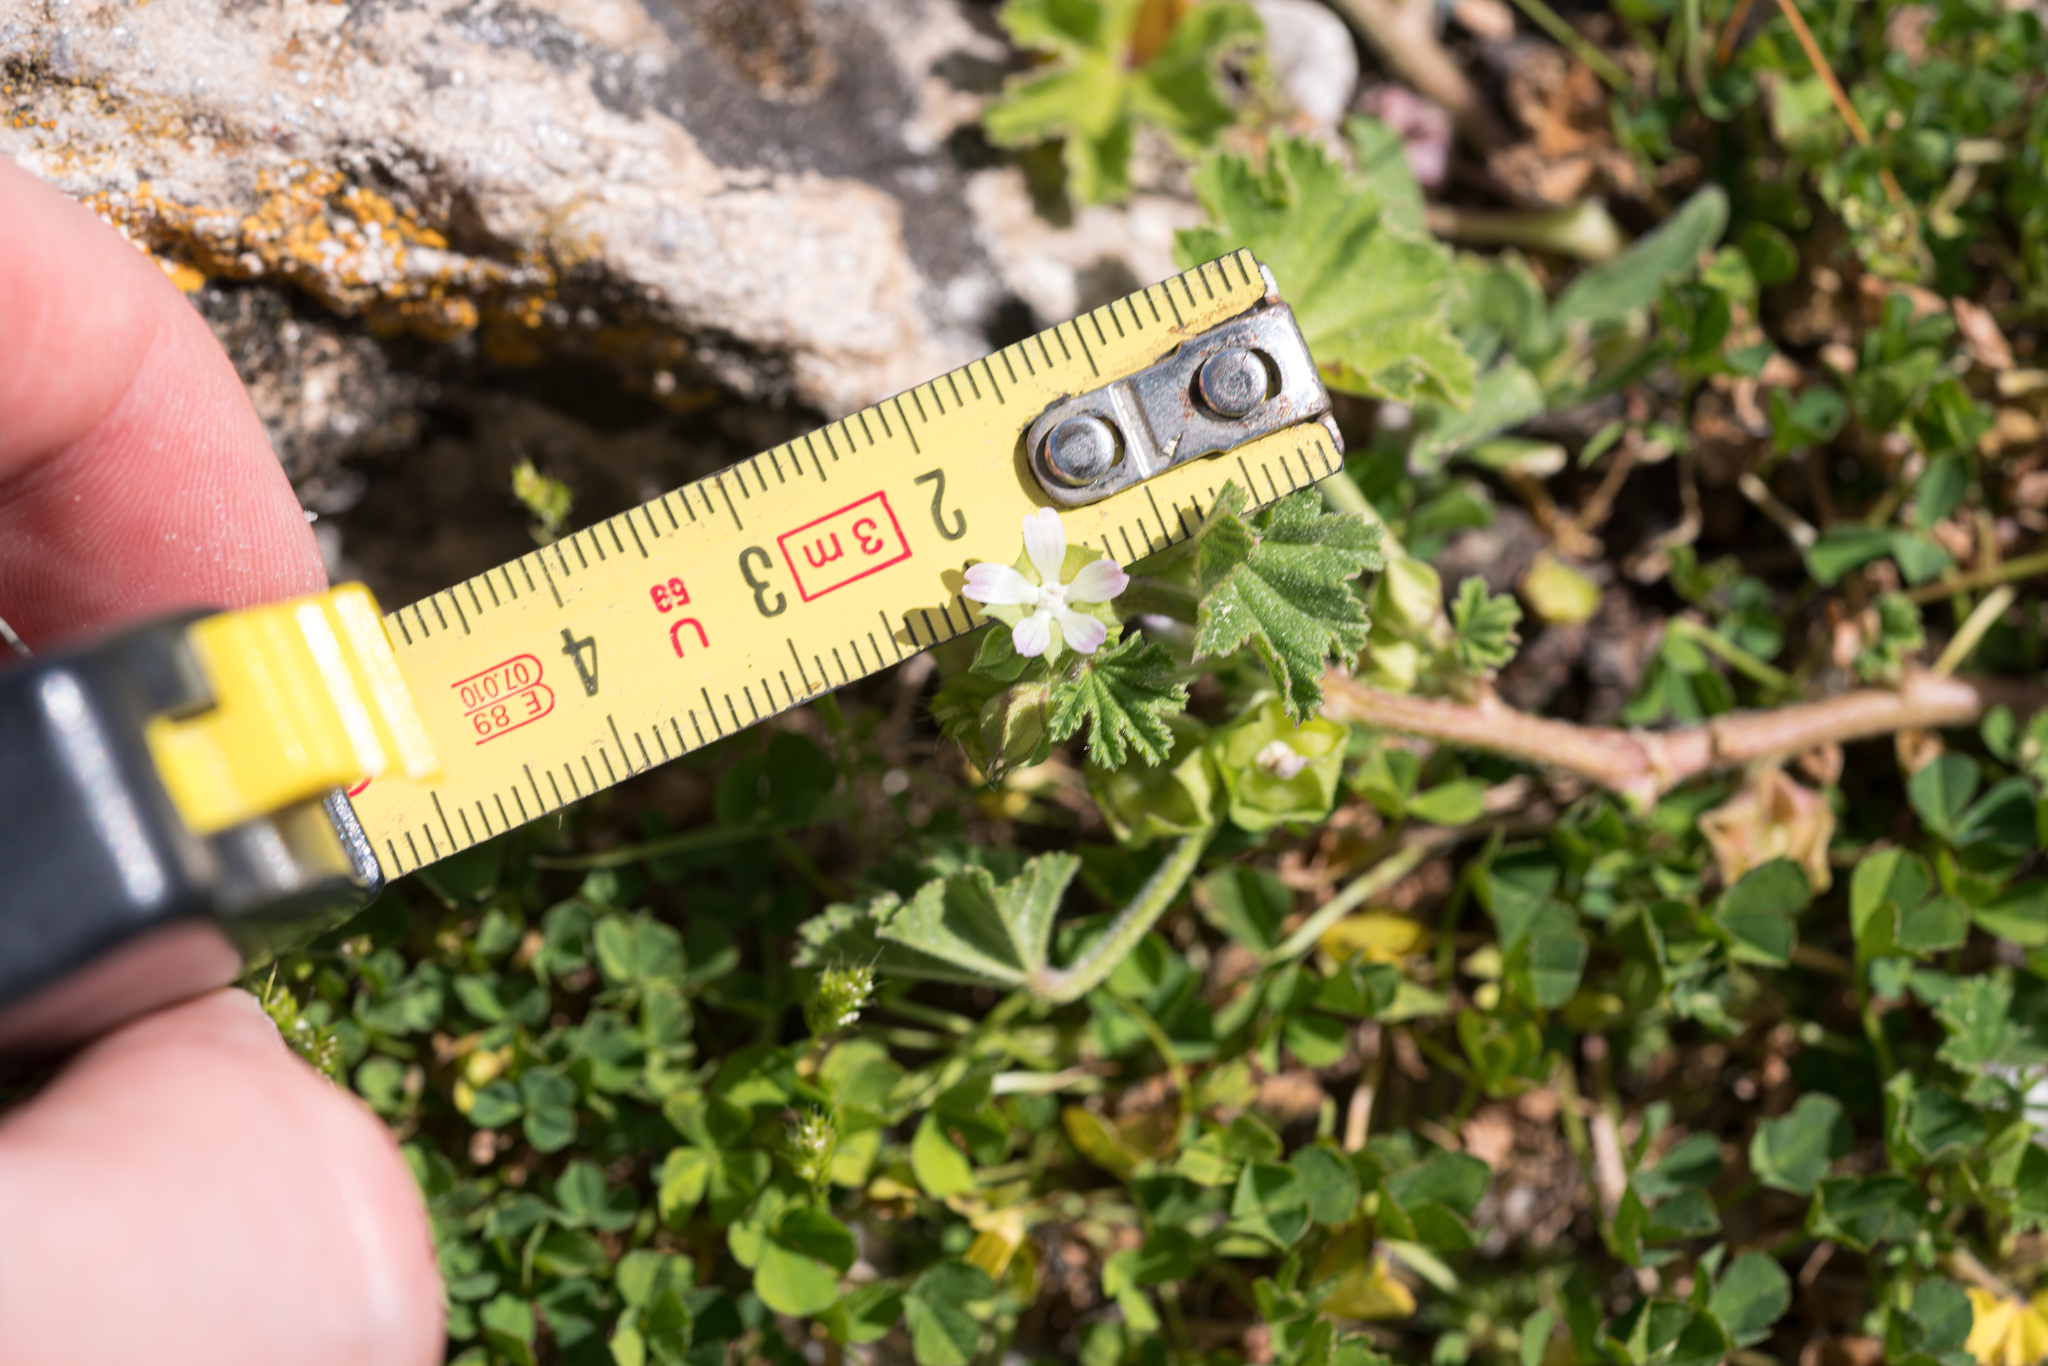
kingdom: Plantae
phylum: Tracheophyta
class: Magnoliopsida
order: Malvales
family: Malvaceae
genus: Malva
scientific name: Malva parviflora
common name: Least mallow
